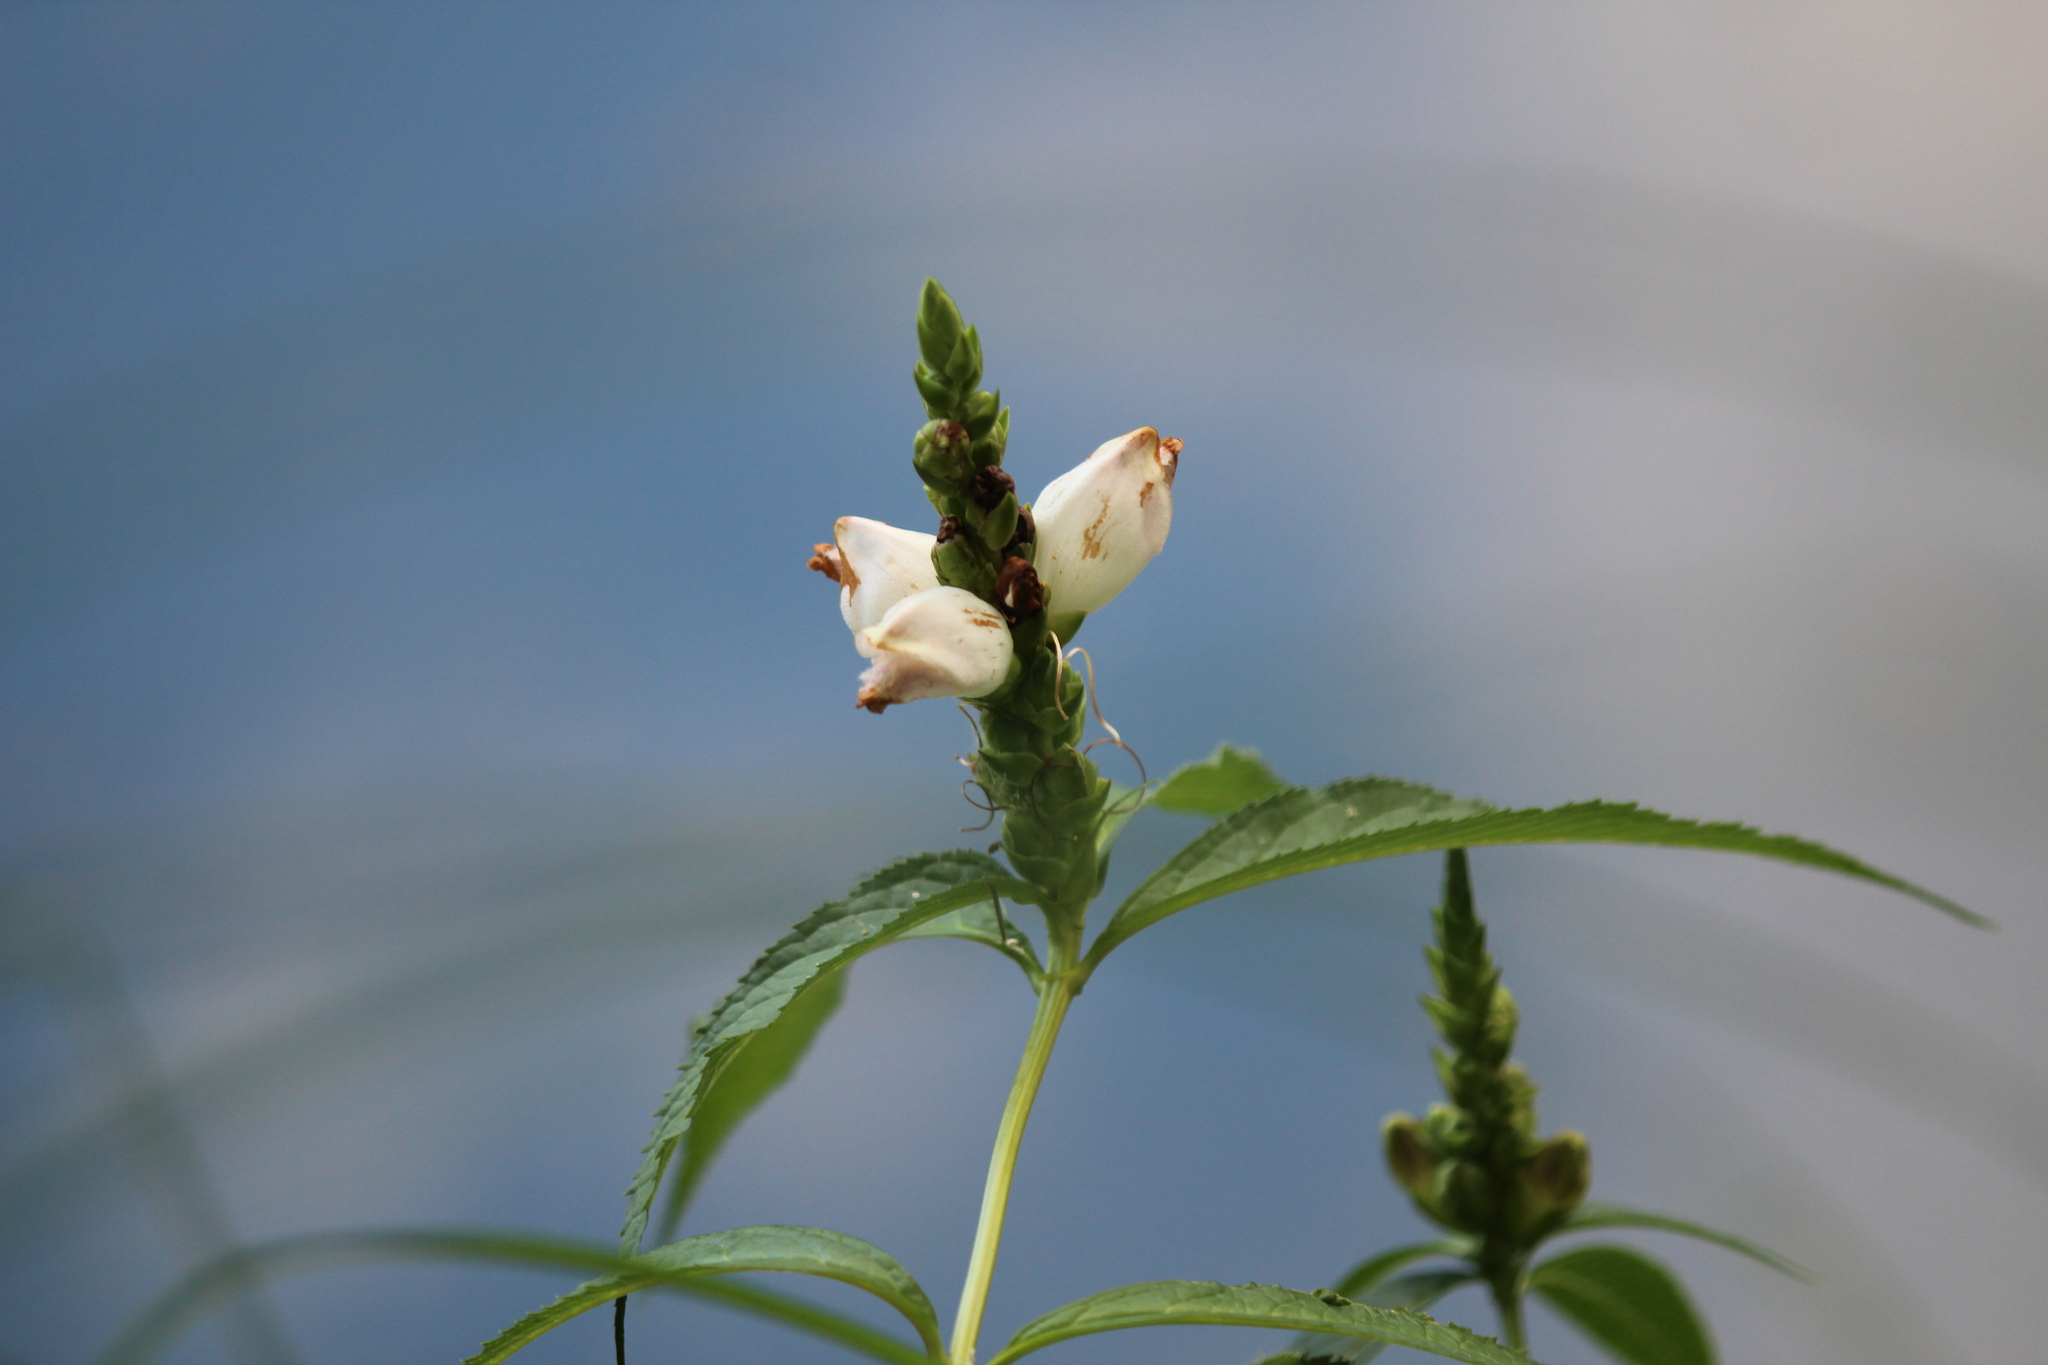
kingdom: Plantae
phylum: Tracheophyta
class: Magnoliopsida
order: Lamiales
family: Plantaginaceae
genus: Chelone
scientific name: Chelone glabra
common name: Snakehead
